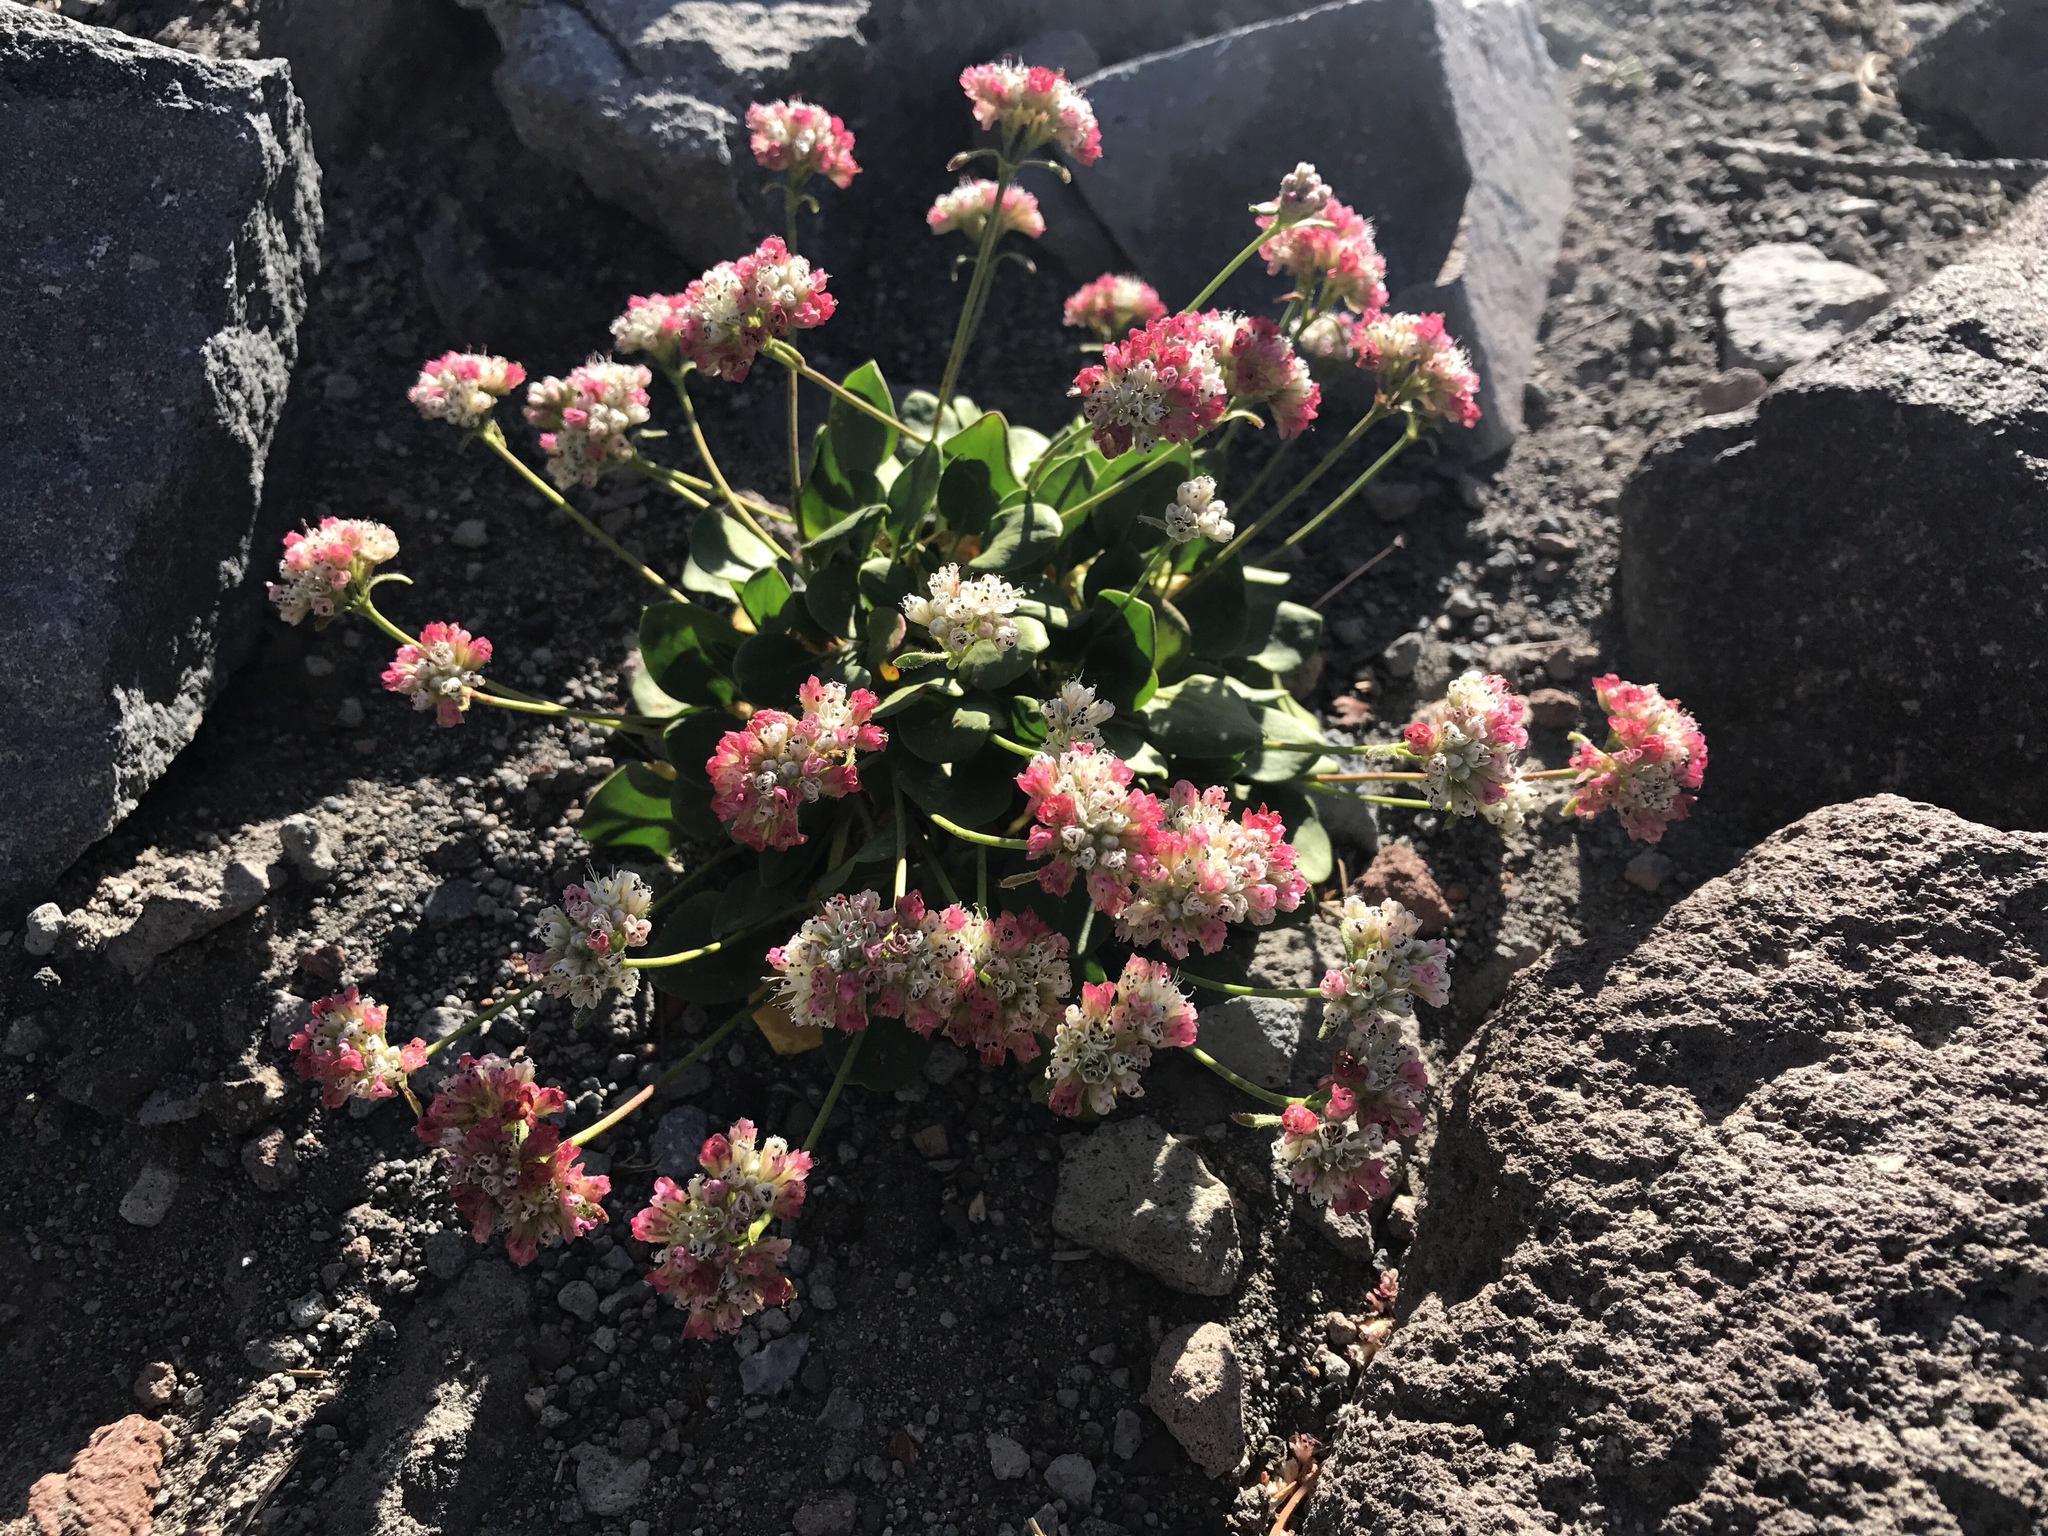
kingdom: Plantae
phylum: Tracheophyta
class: Magnoliopsida
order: Caryophyllales
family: Polygonaceae
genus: Eriogonum
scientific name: Eriogonum pyrolifolium
